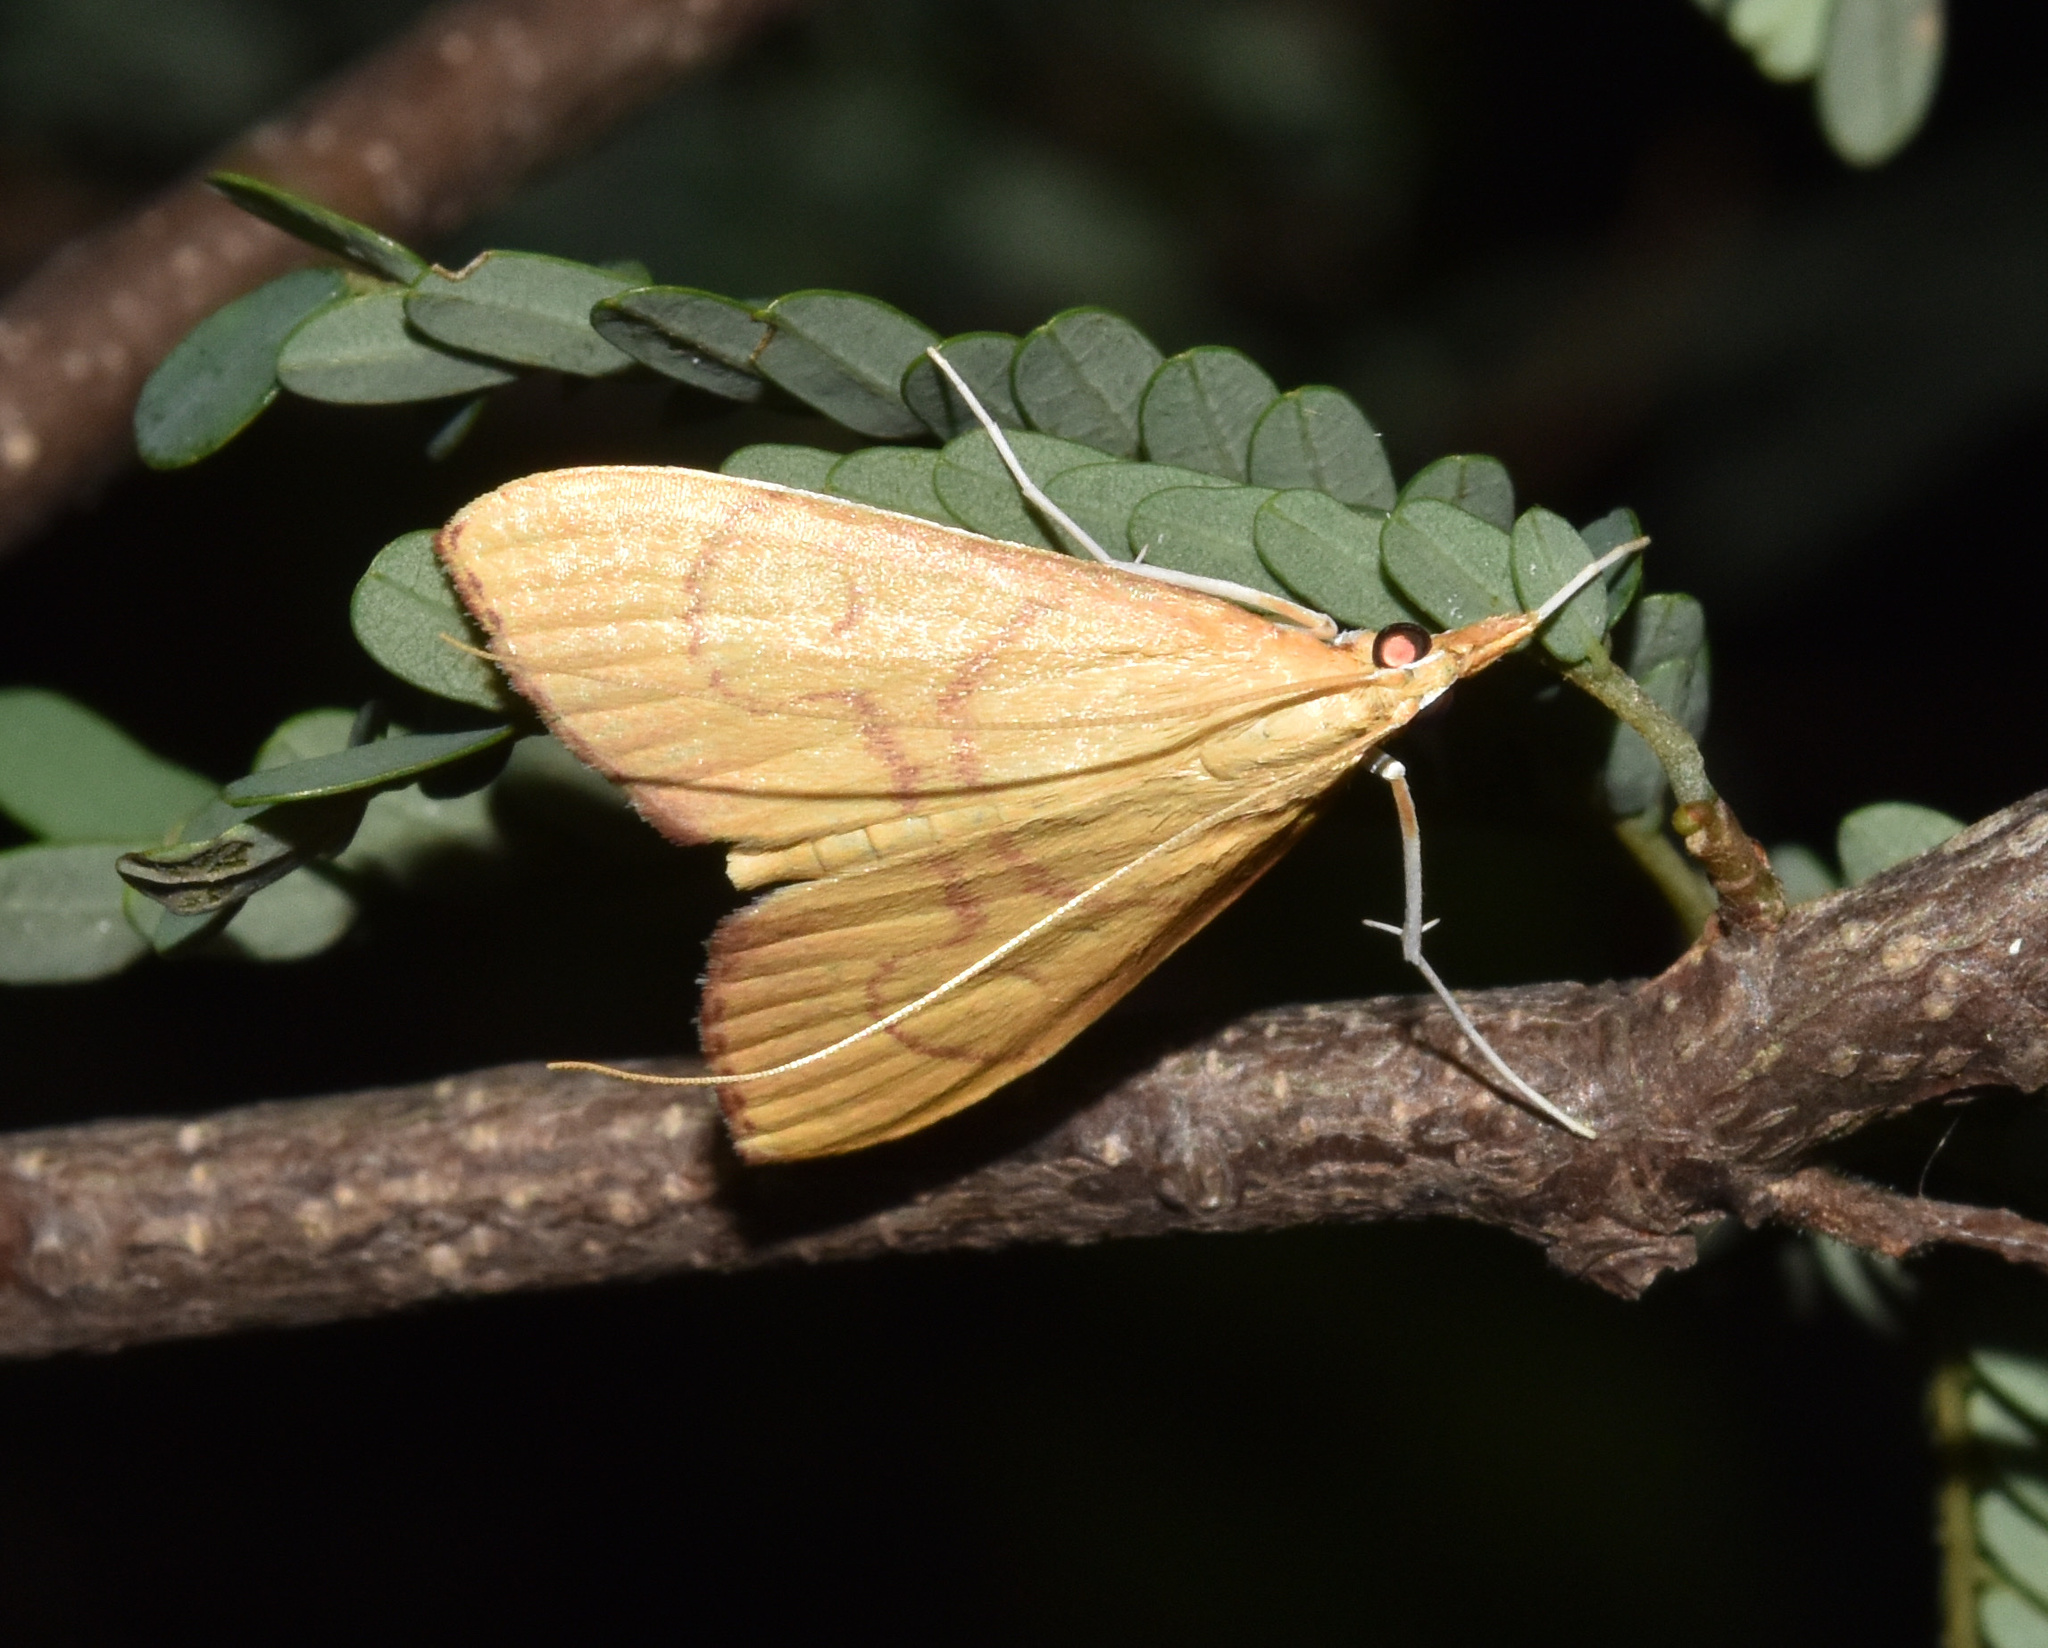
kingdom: Animalia
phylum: Arthropoda
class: Insecta
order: Lepidoptera
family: Crambidae
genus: Mimudea
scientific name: Mimudea prolausalis
